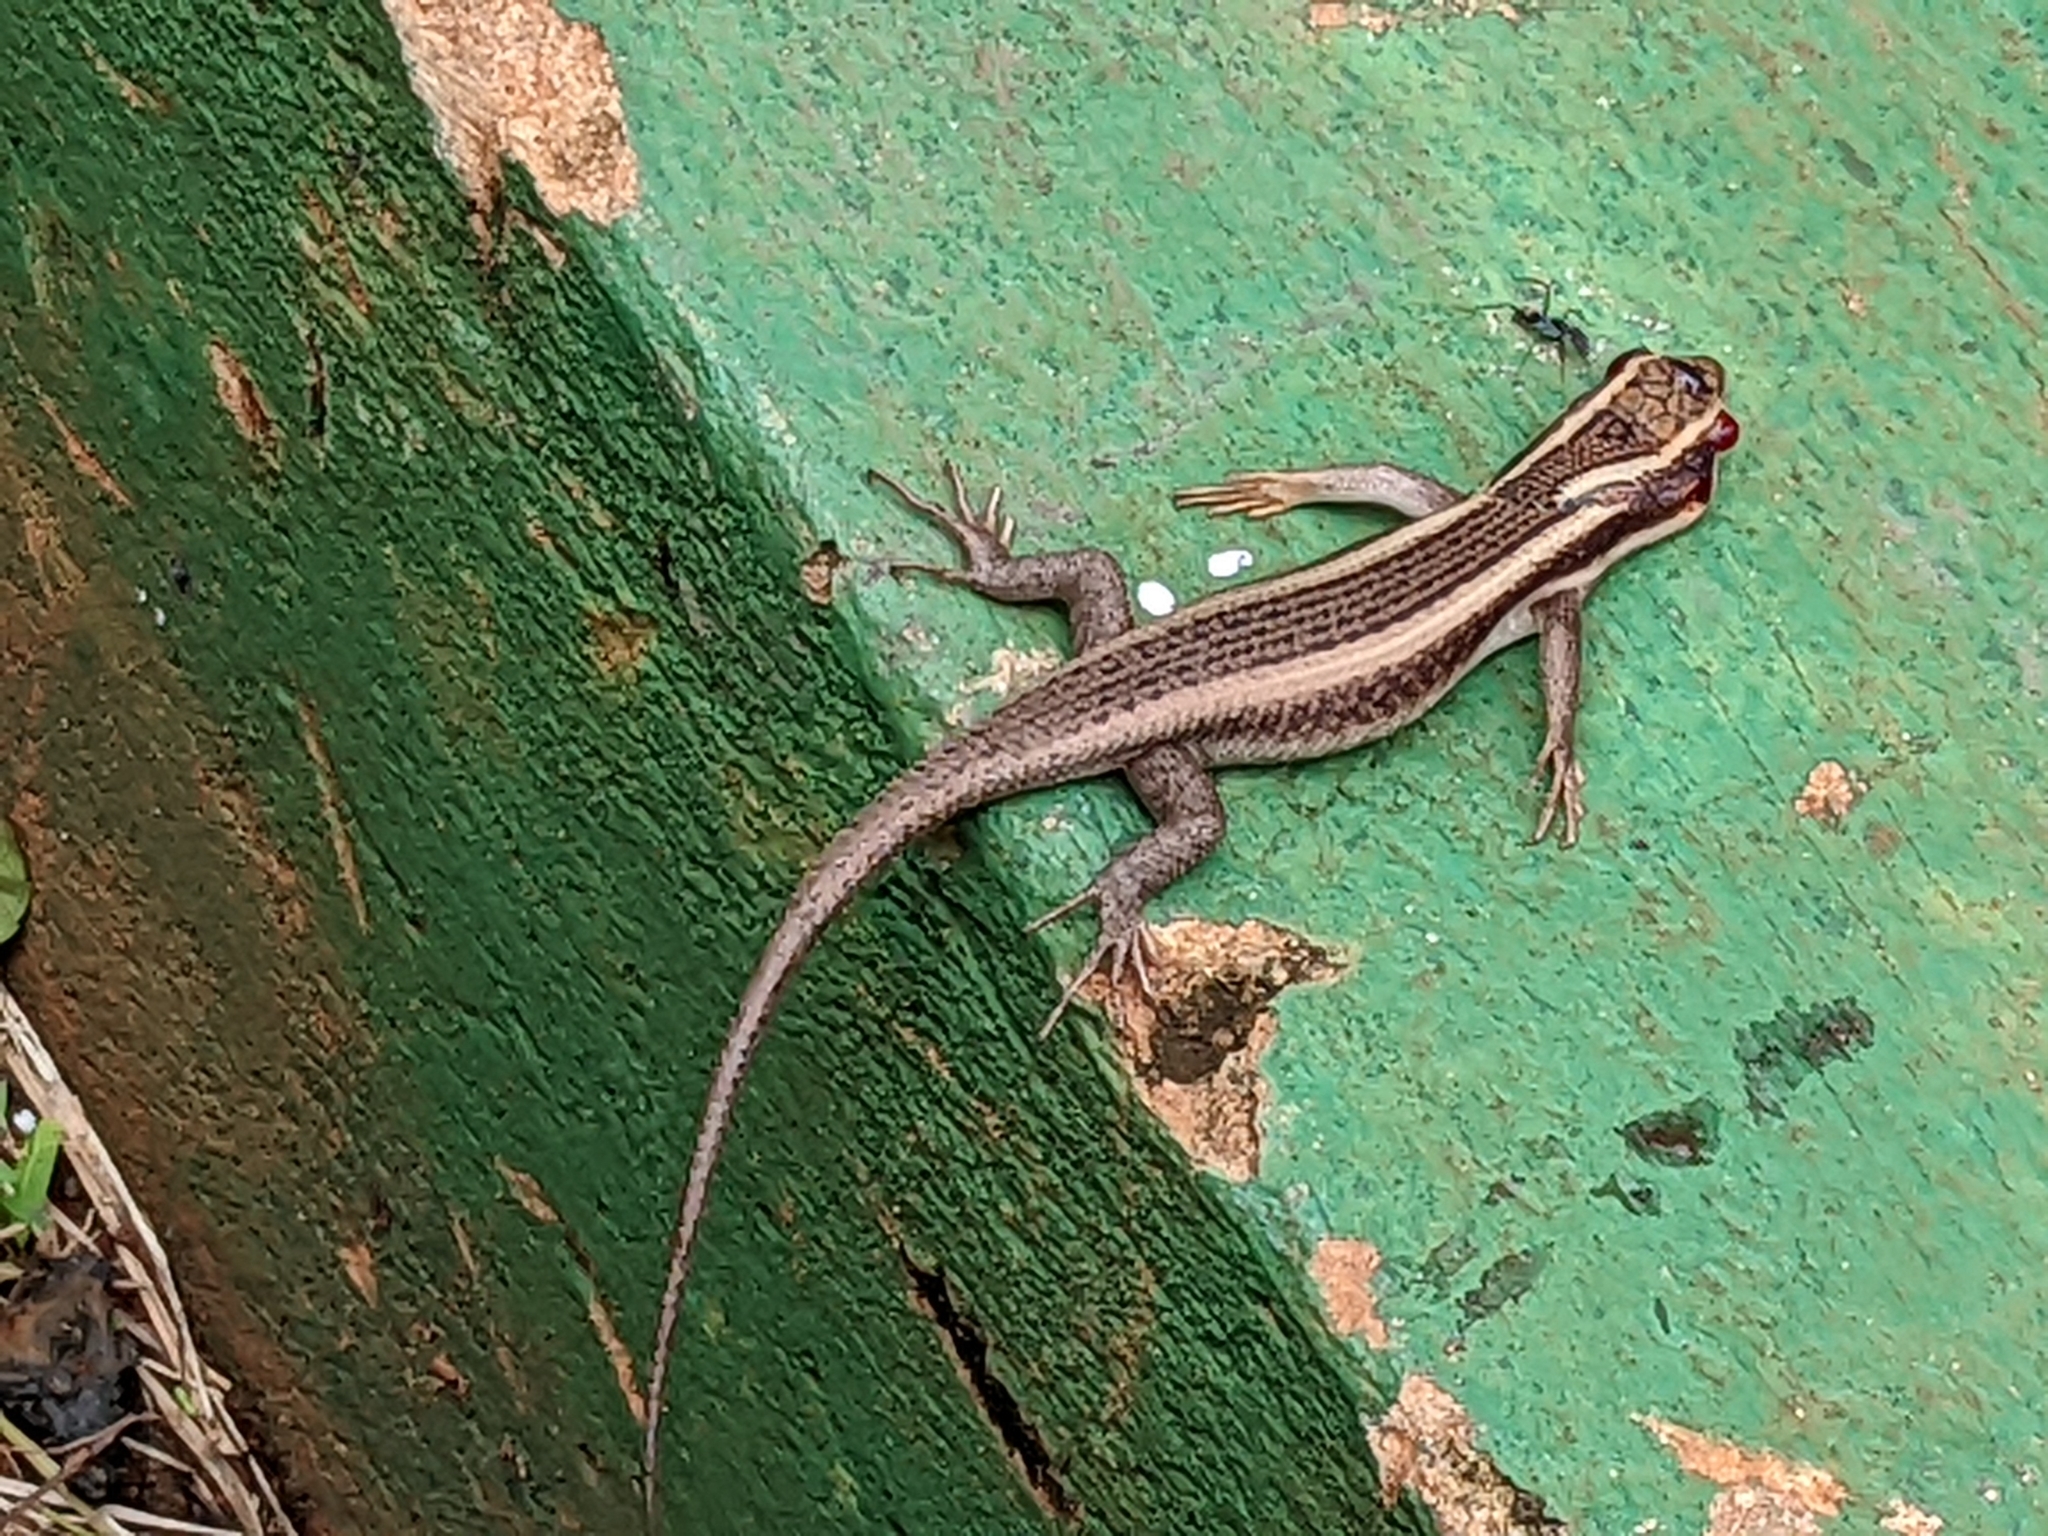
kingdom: Animalia
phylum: Chordata
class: Squamata
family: Scincidae
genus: Trachylepis
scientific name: Trachylepis striata
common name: African striped mabuya
